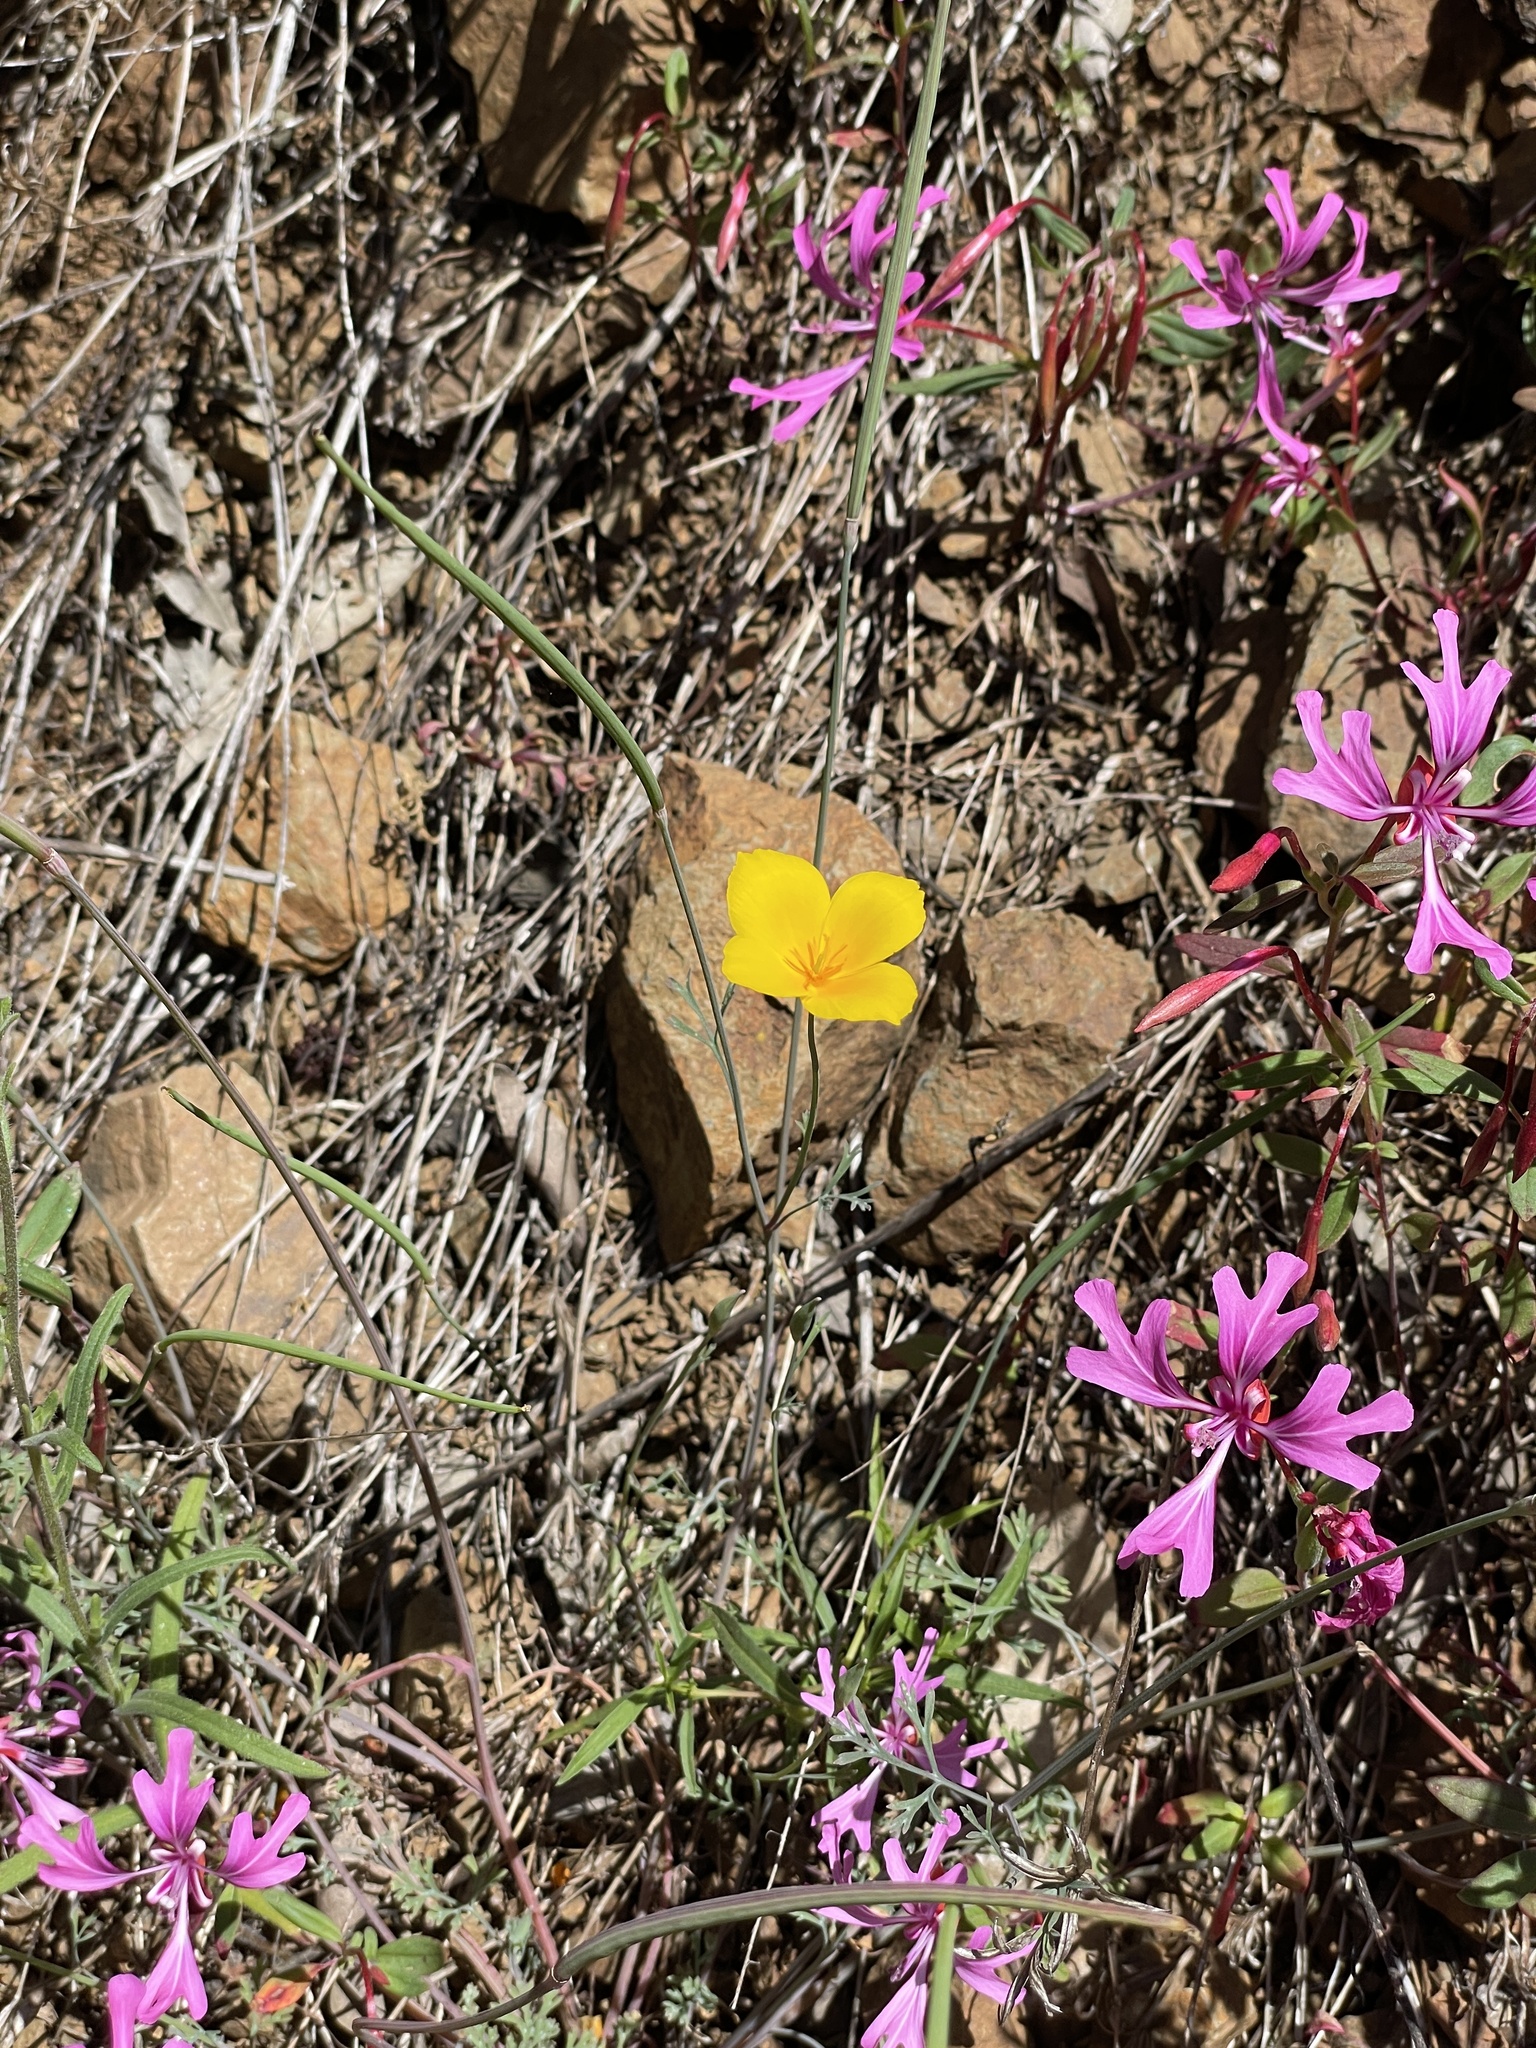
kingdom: Plantae
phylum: Tracheophyta
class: Magnoliopsida
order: Ranunculales
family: Papaveraceae
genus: Eschscholzia
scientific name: Eschscholzia caespitosa
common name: Tufted california-poppy
